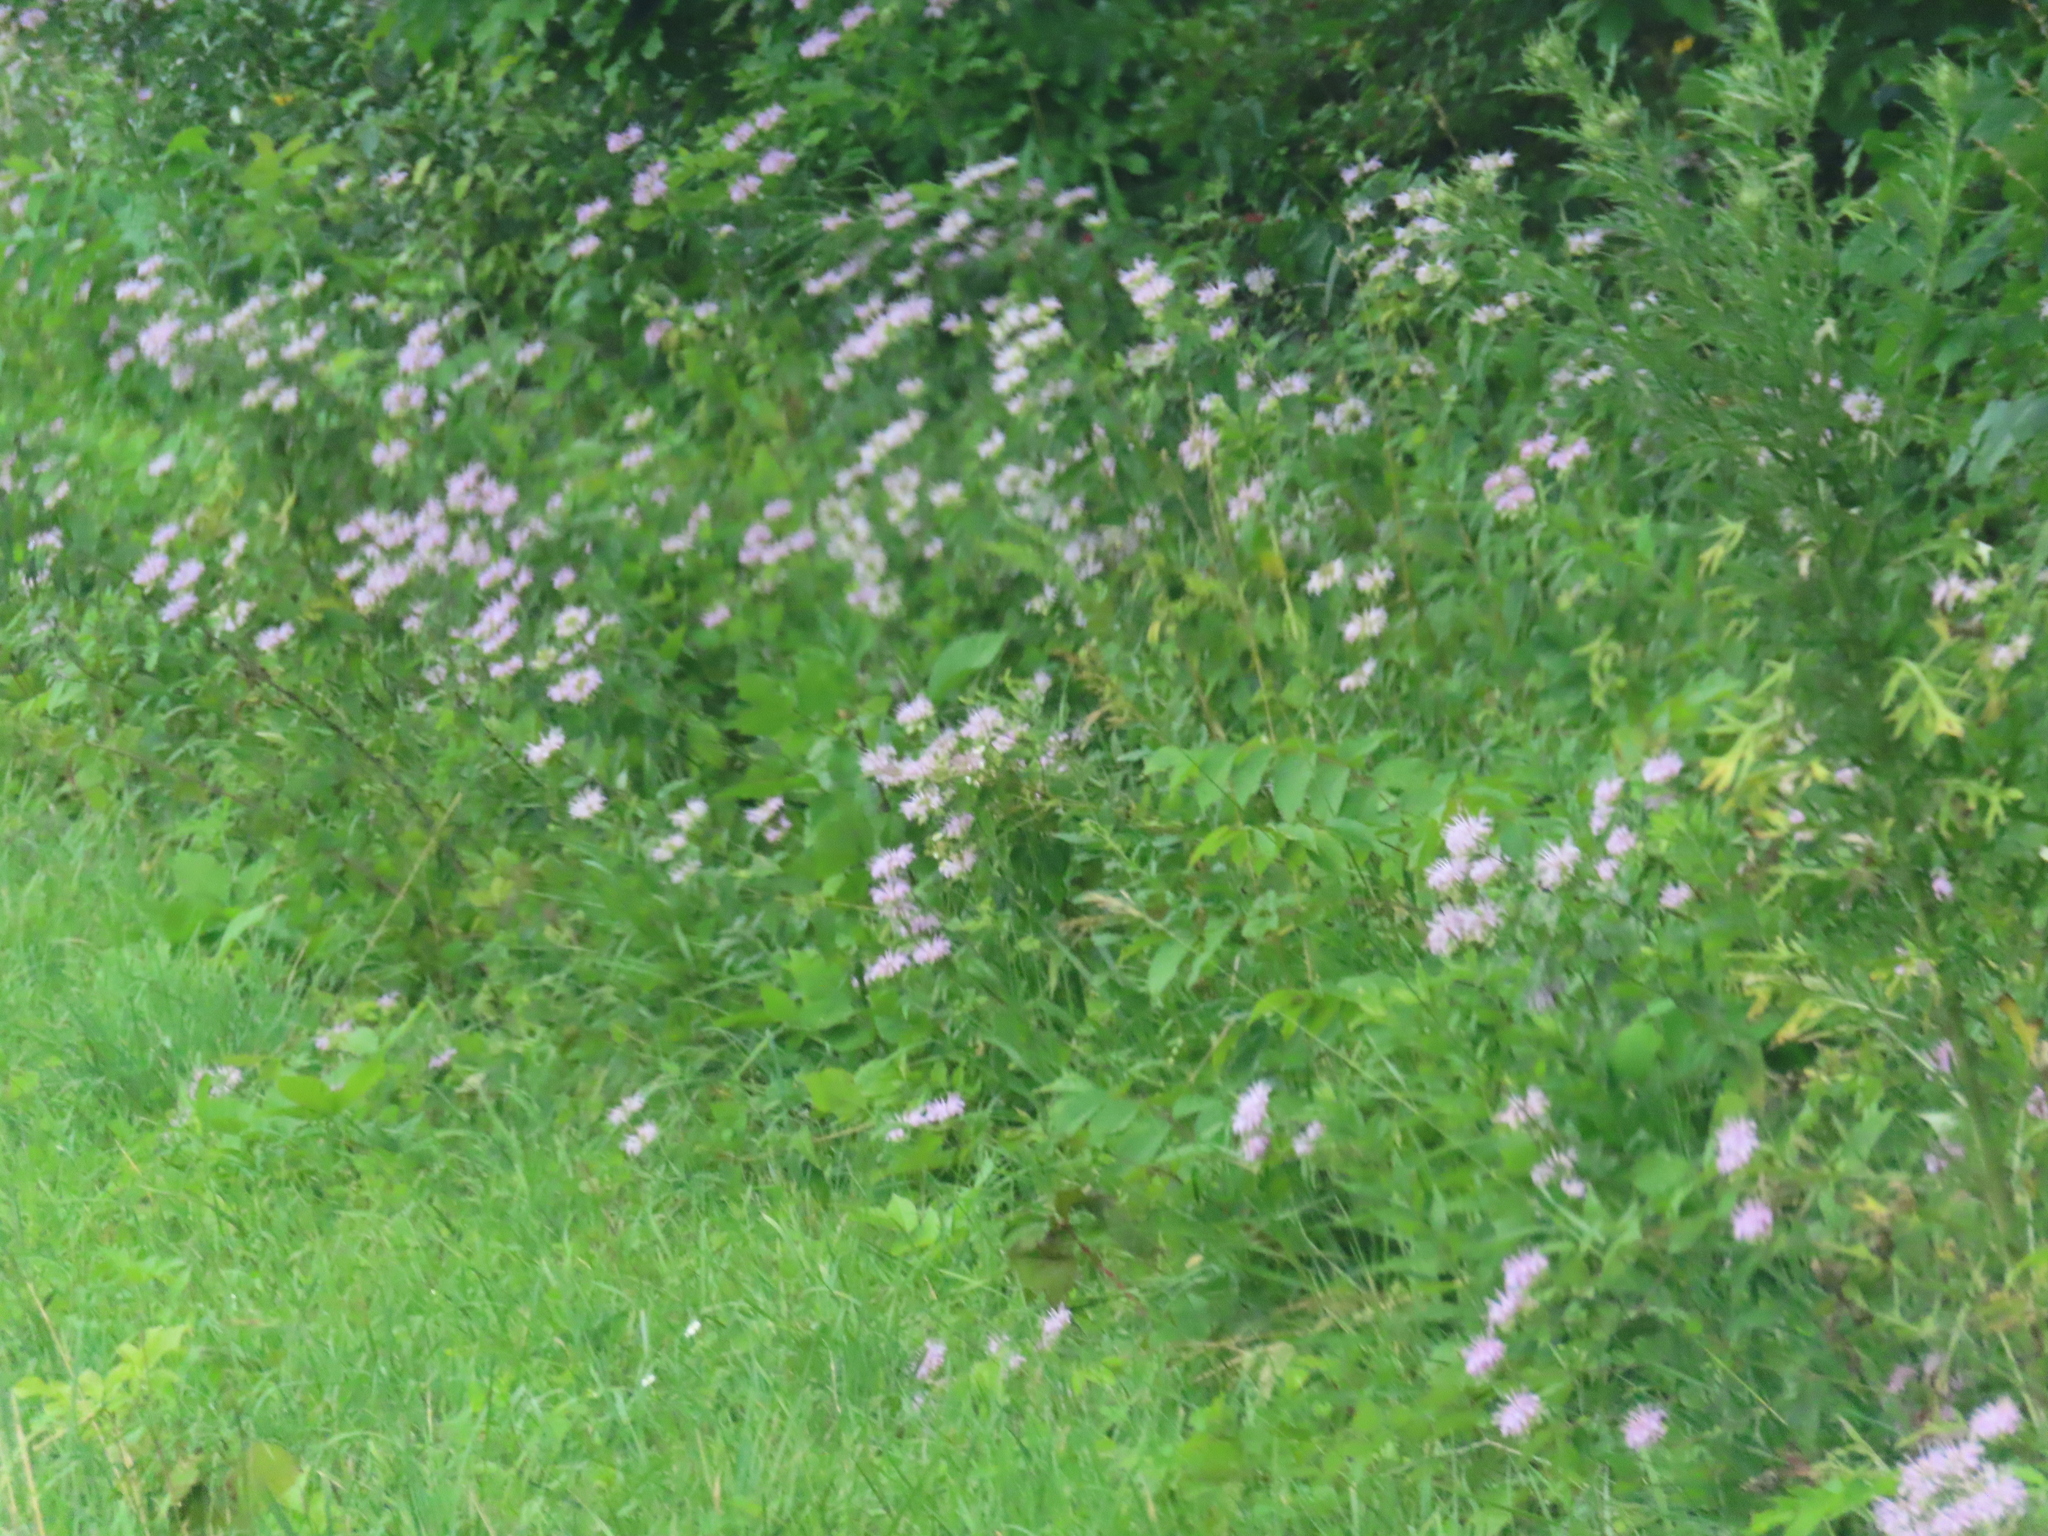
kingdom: Plantae
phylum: Tracheophyta
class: Magnoliopsida
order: Lamiales
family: Lamiaceae
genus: Monarda
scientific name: Monarda fistulosa
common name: Purple beebalm
